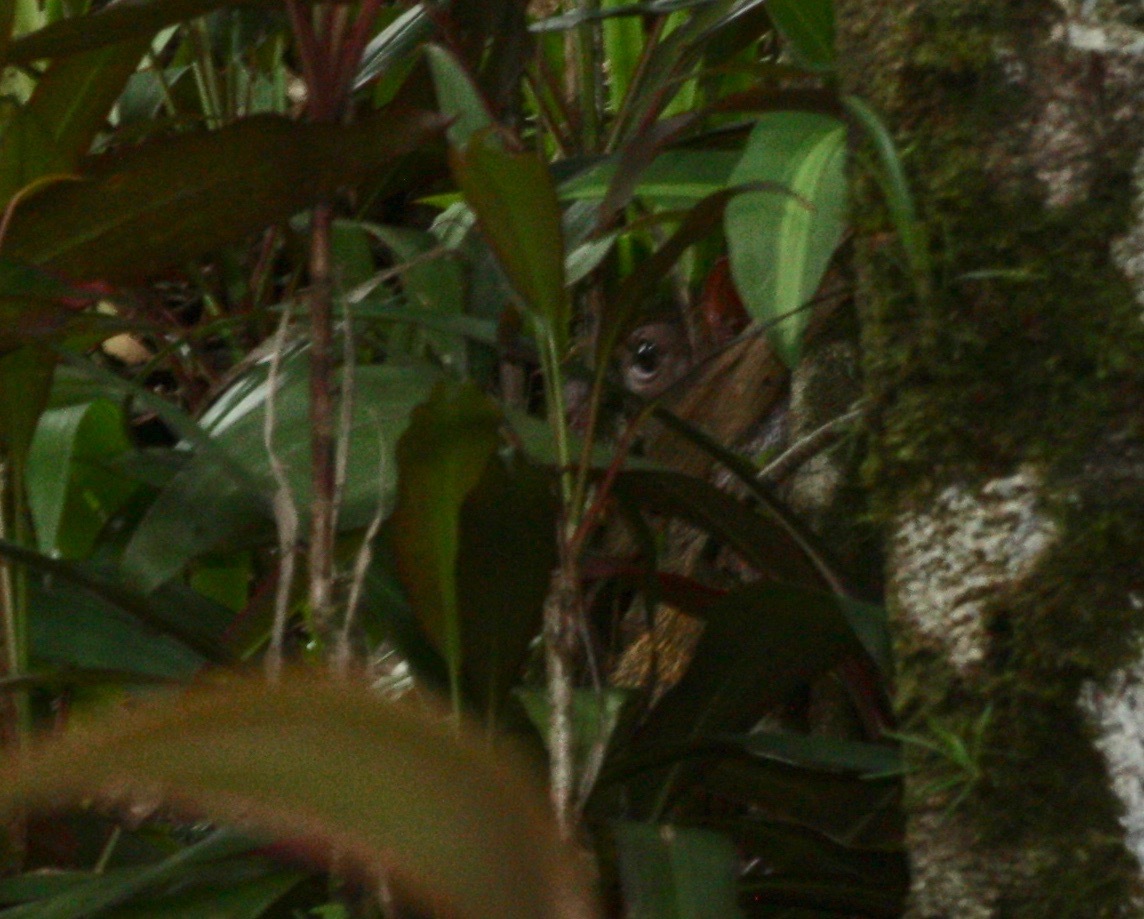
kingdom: Animalia
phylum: Chordata
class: Mammalia
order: Rodentia
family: Dasyproctidae
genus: Dasyprocta
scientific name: Dasyprocta punctata
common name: Central american agouti
